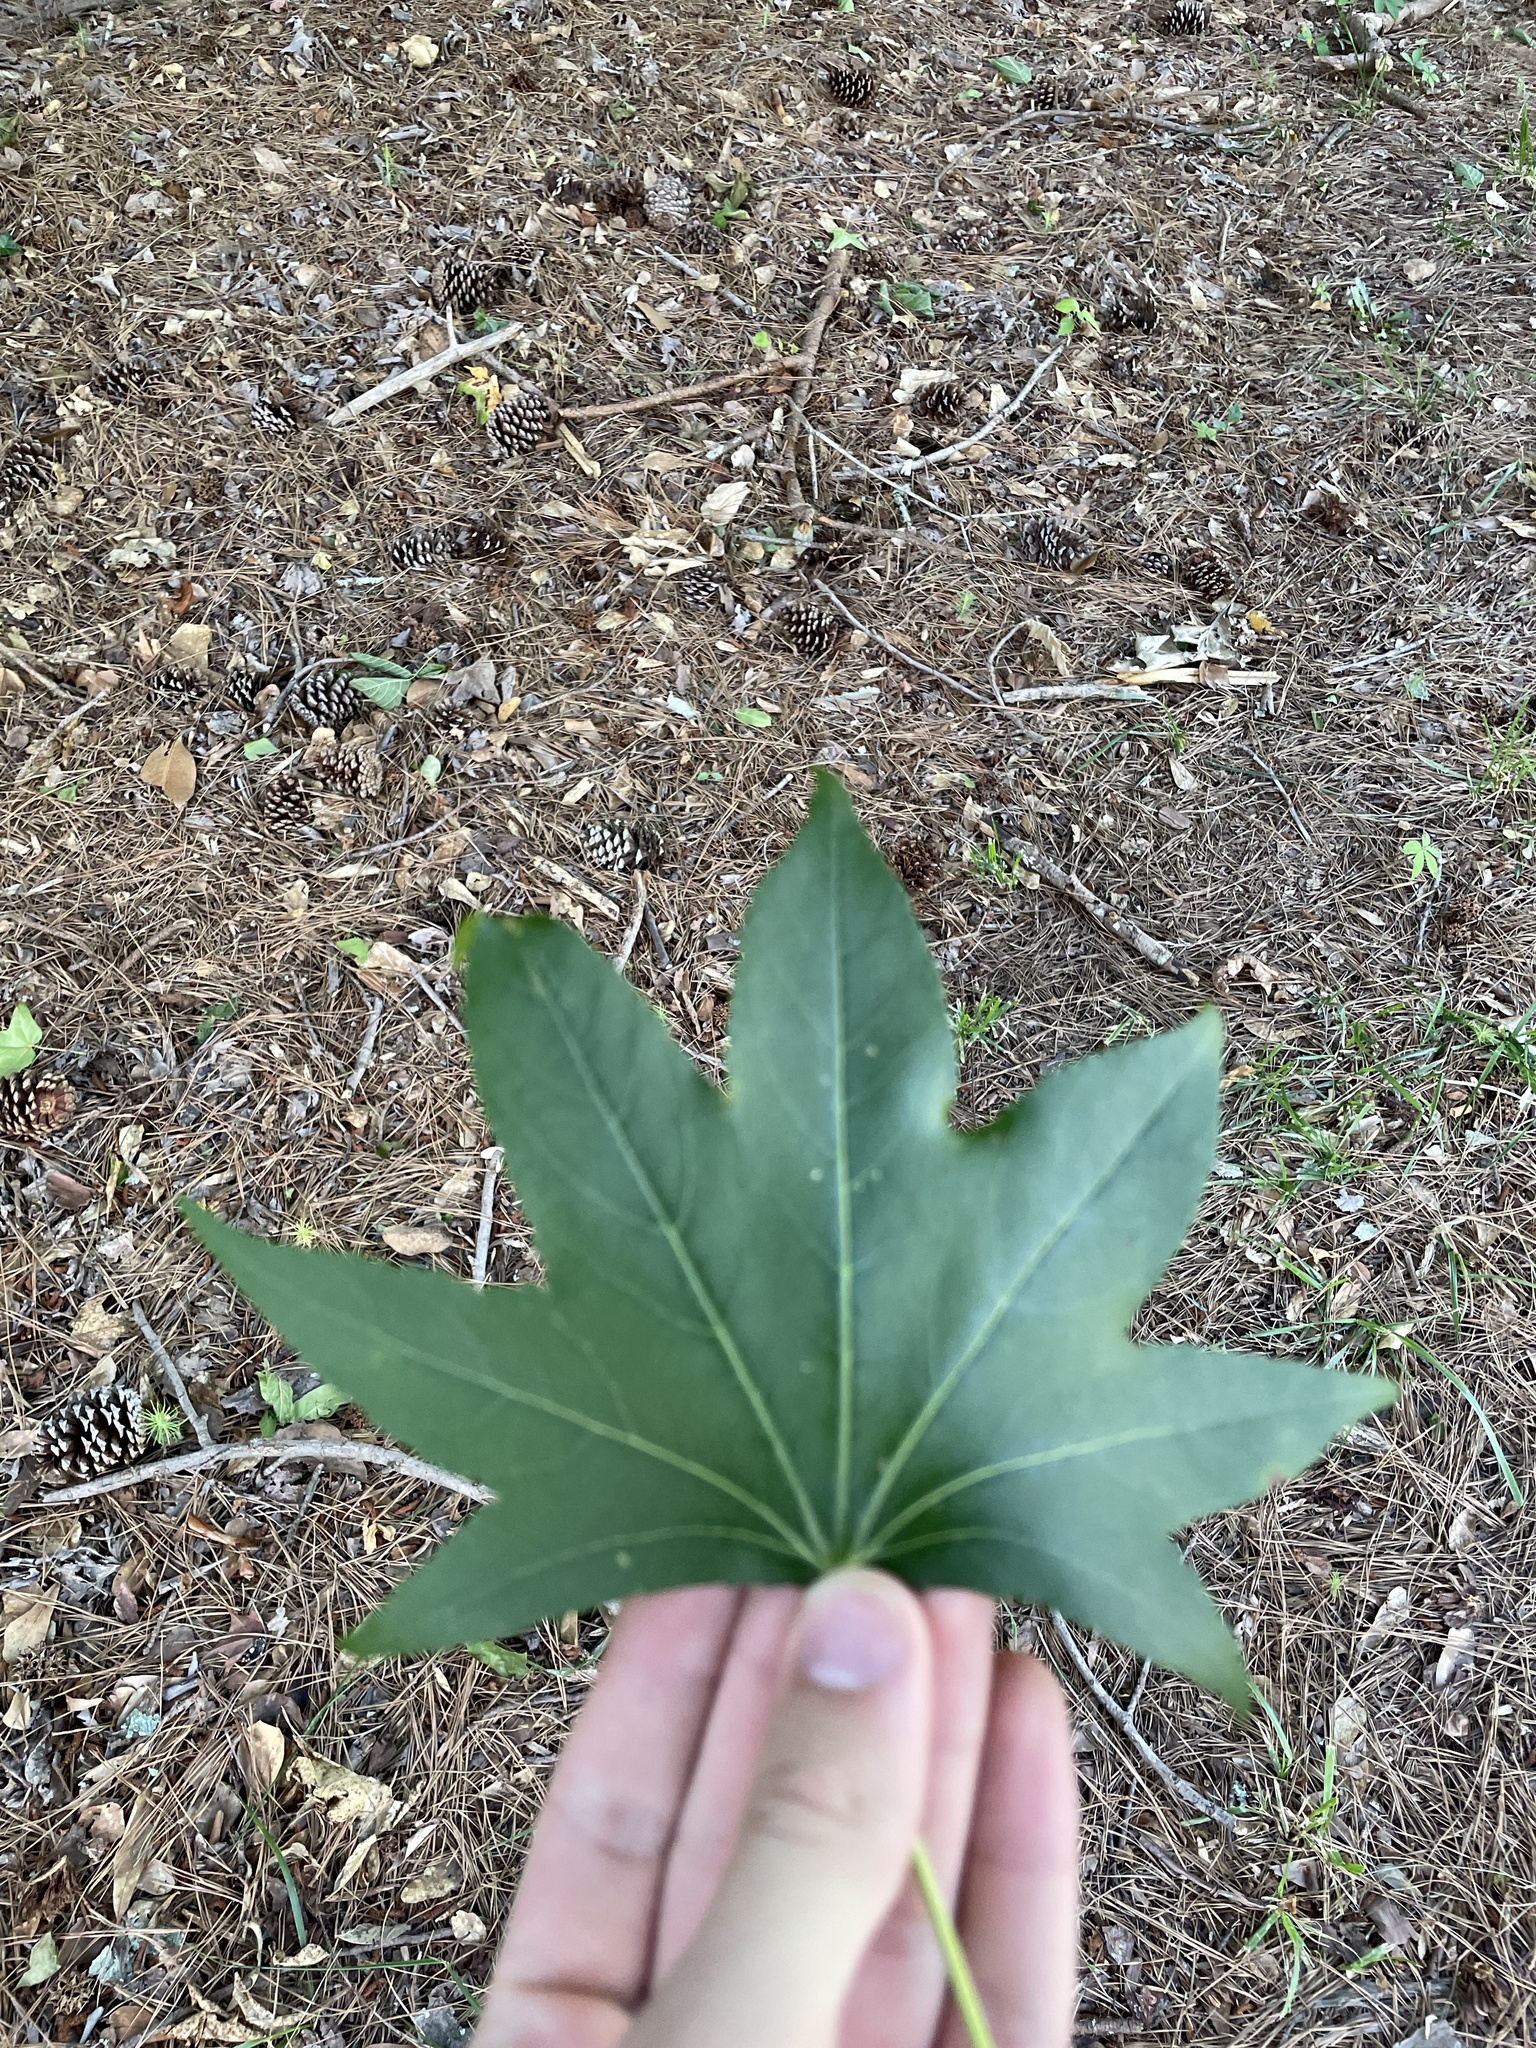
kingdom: Plantae
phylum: Tracheophyta
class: Magnoliopsida
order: Saxifragales
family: Altingiaceae
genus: Liquidambar
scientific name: Liquidambar styraciflua
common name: Sweet gum
